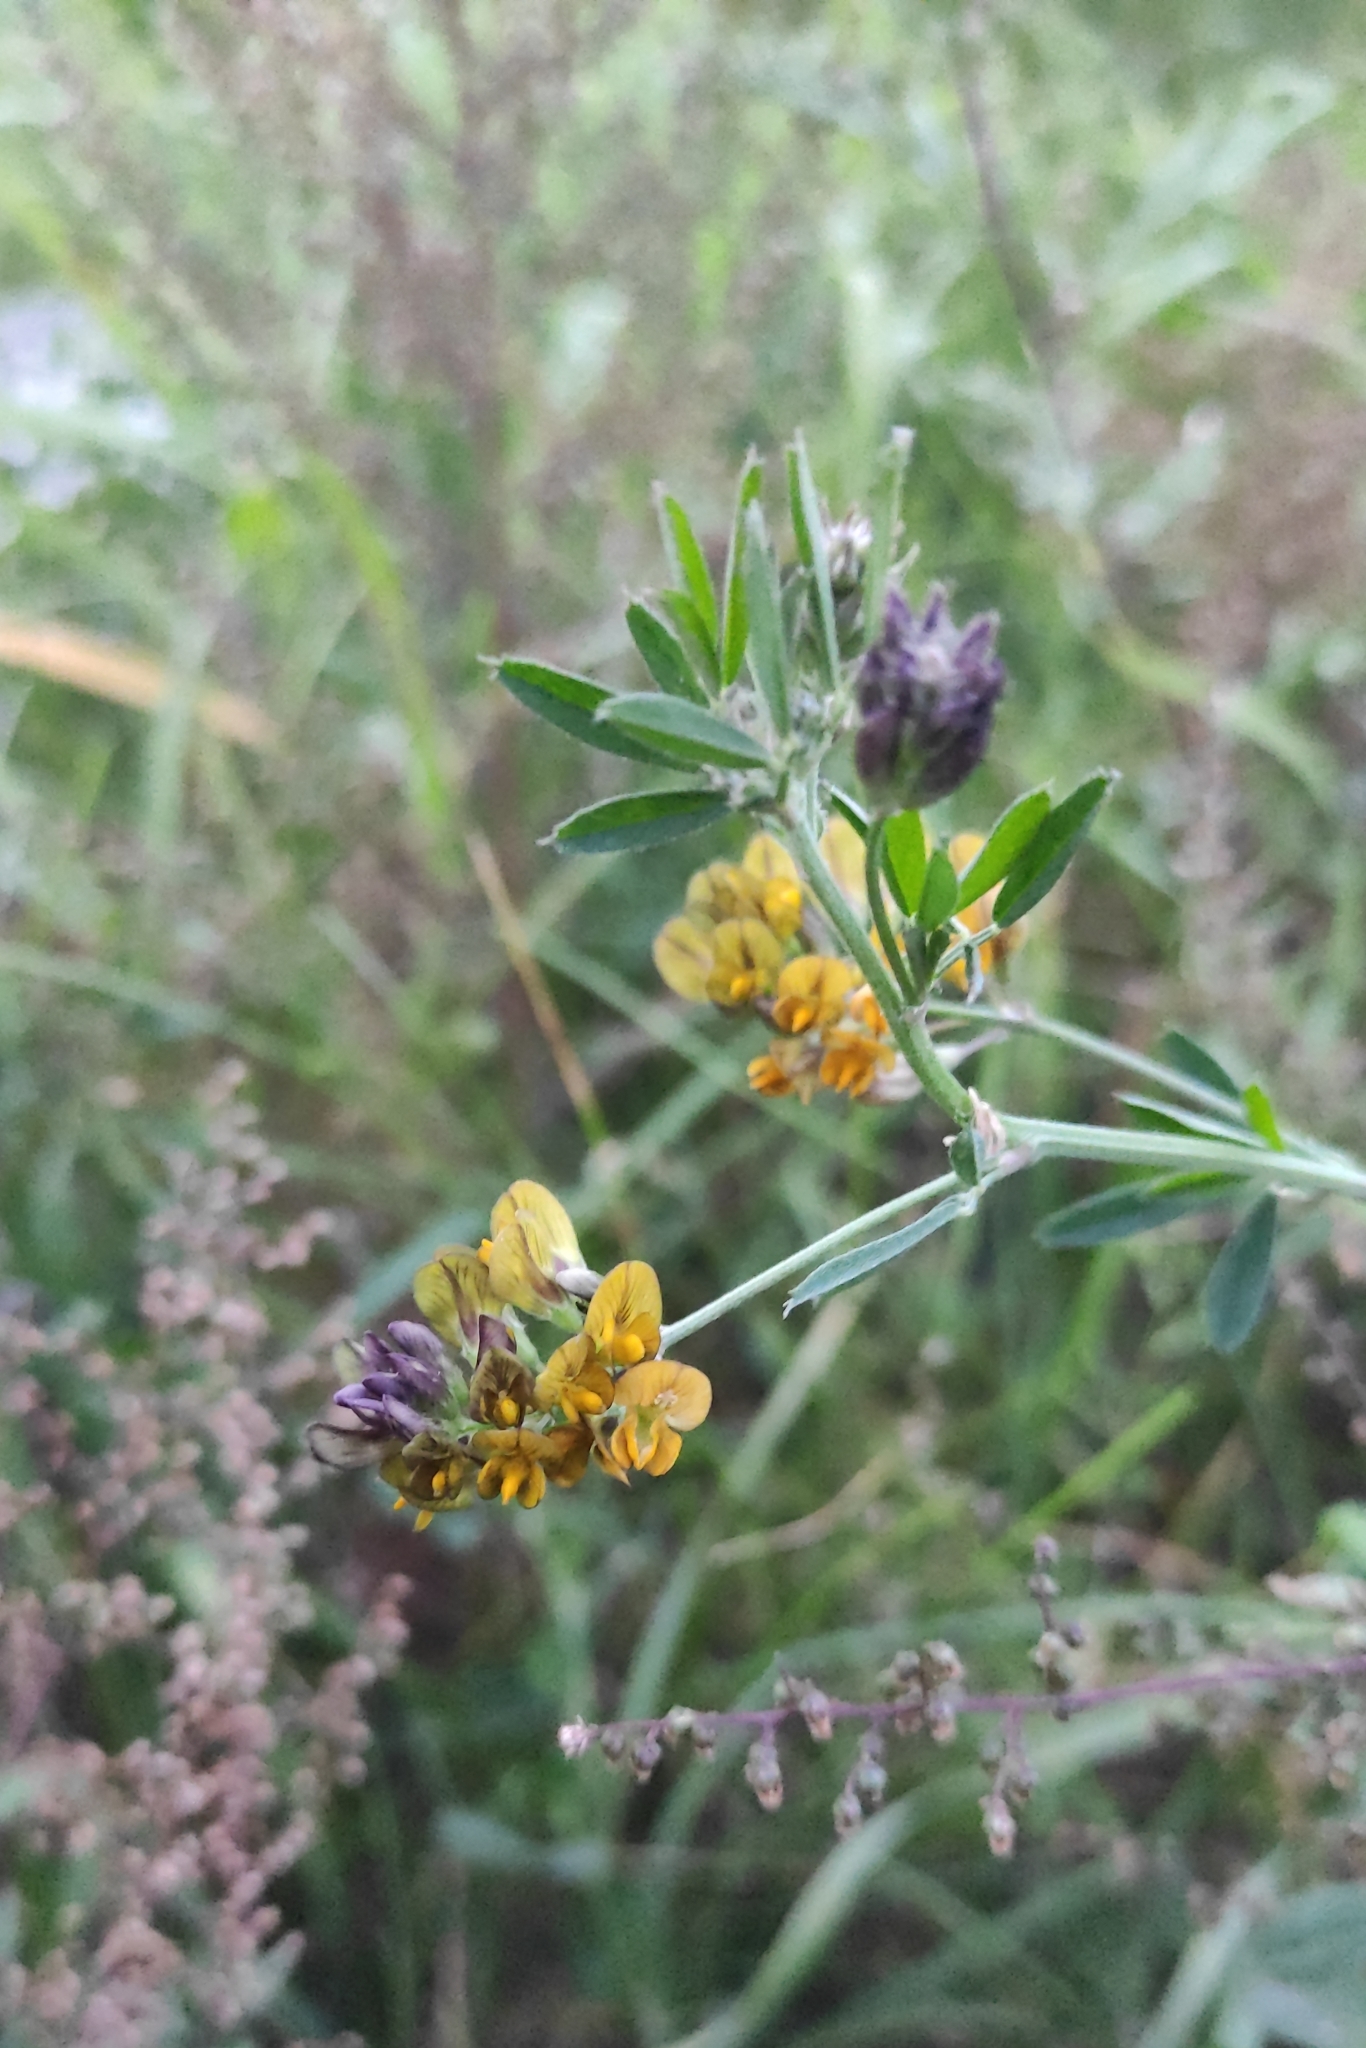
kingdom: Plantae
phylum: Tracheophyta
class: Magnoliopsida
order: Fabales
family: Fabaceae
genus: Medicago
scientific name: Medicago varia
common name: Sand lucerne
